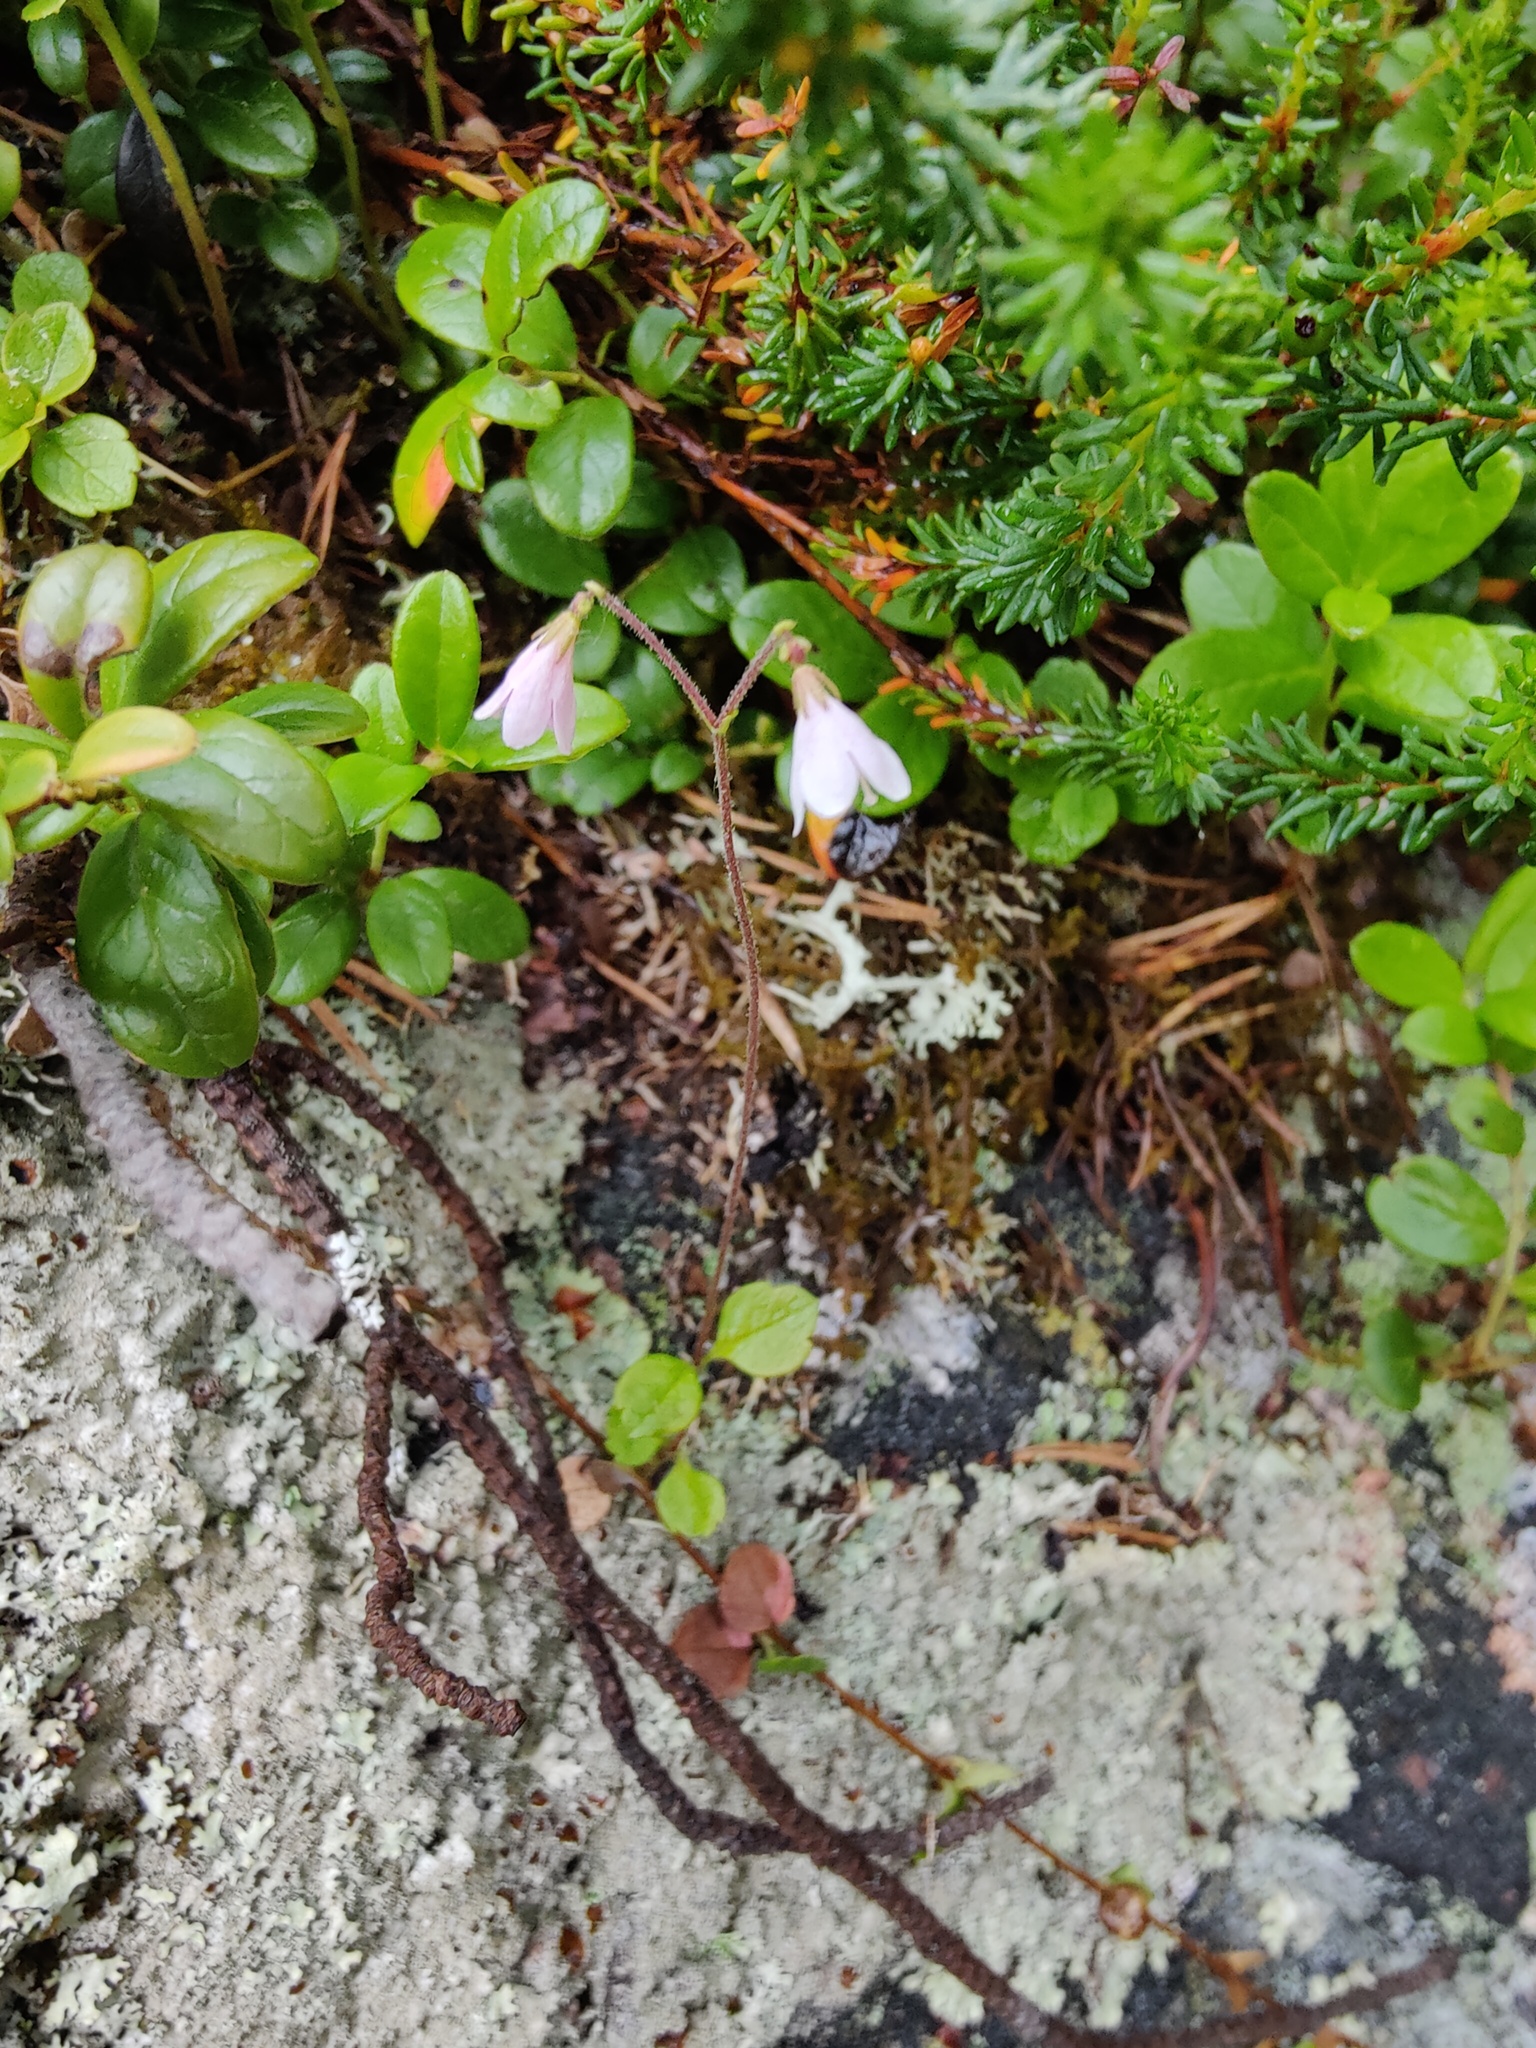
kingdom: Plantae
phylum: Tracheophyta
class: Magnoliopsida
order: Dipsacales
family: Caprifoliaceae
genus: Linnaea
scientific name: Linnaea borealis
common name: Twinflower
